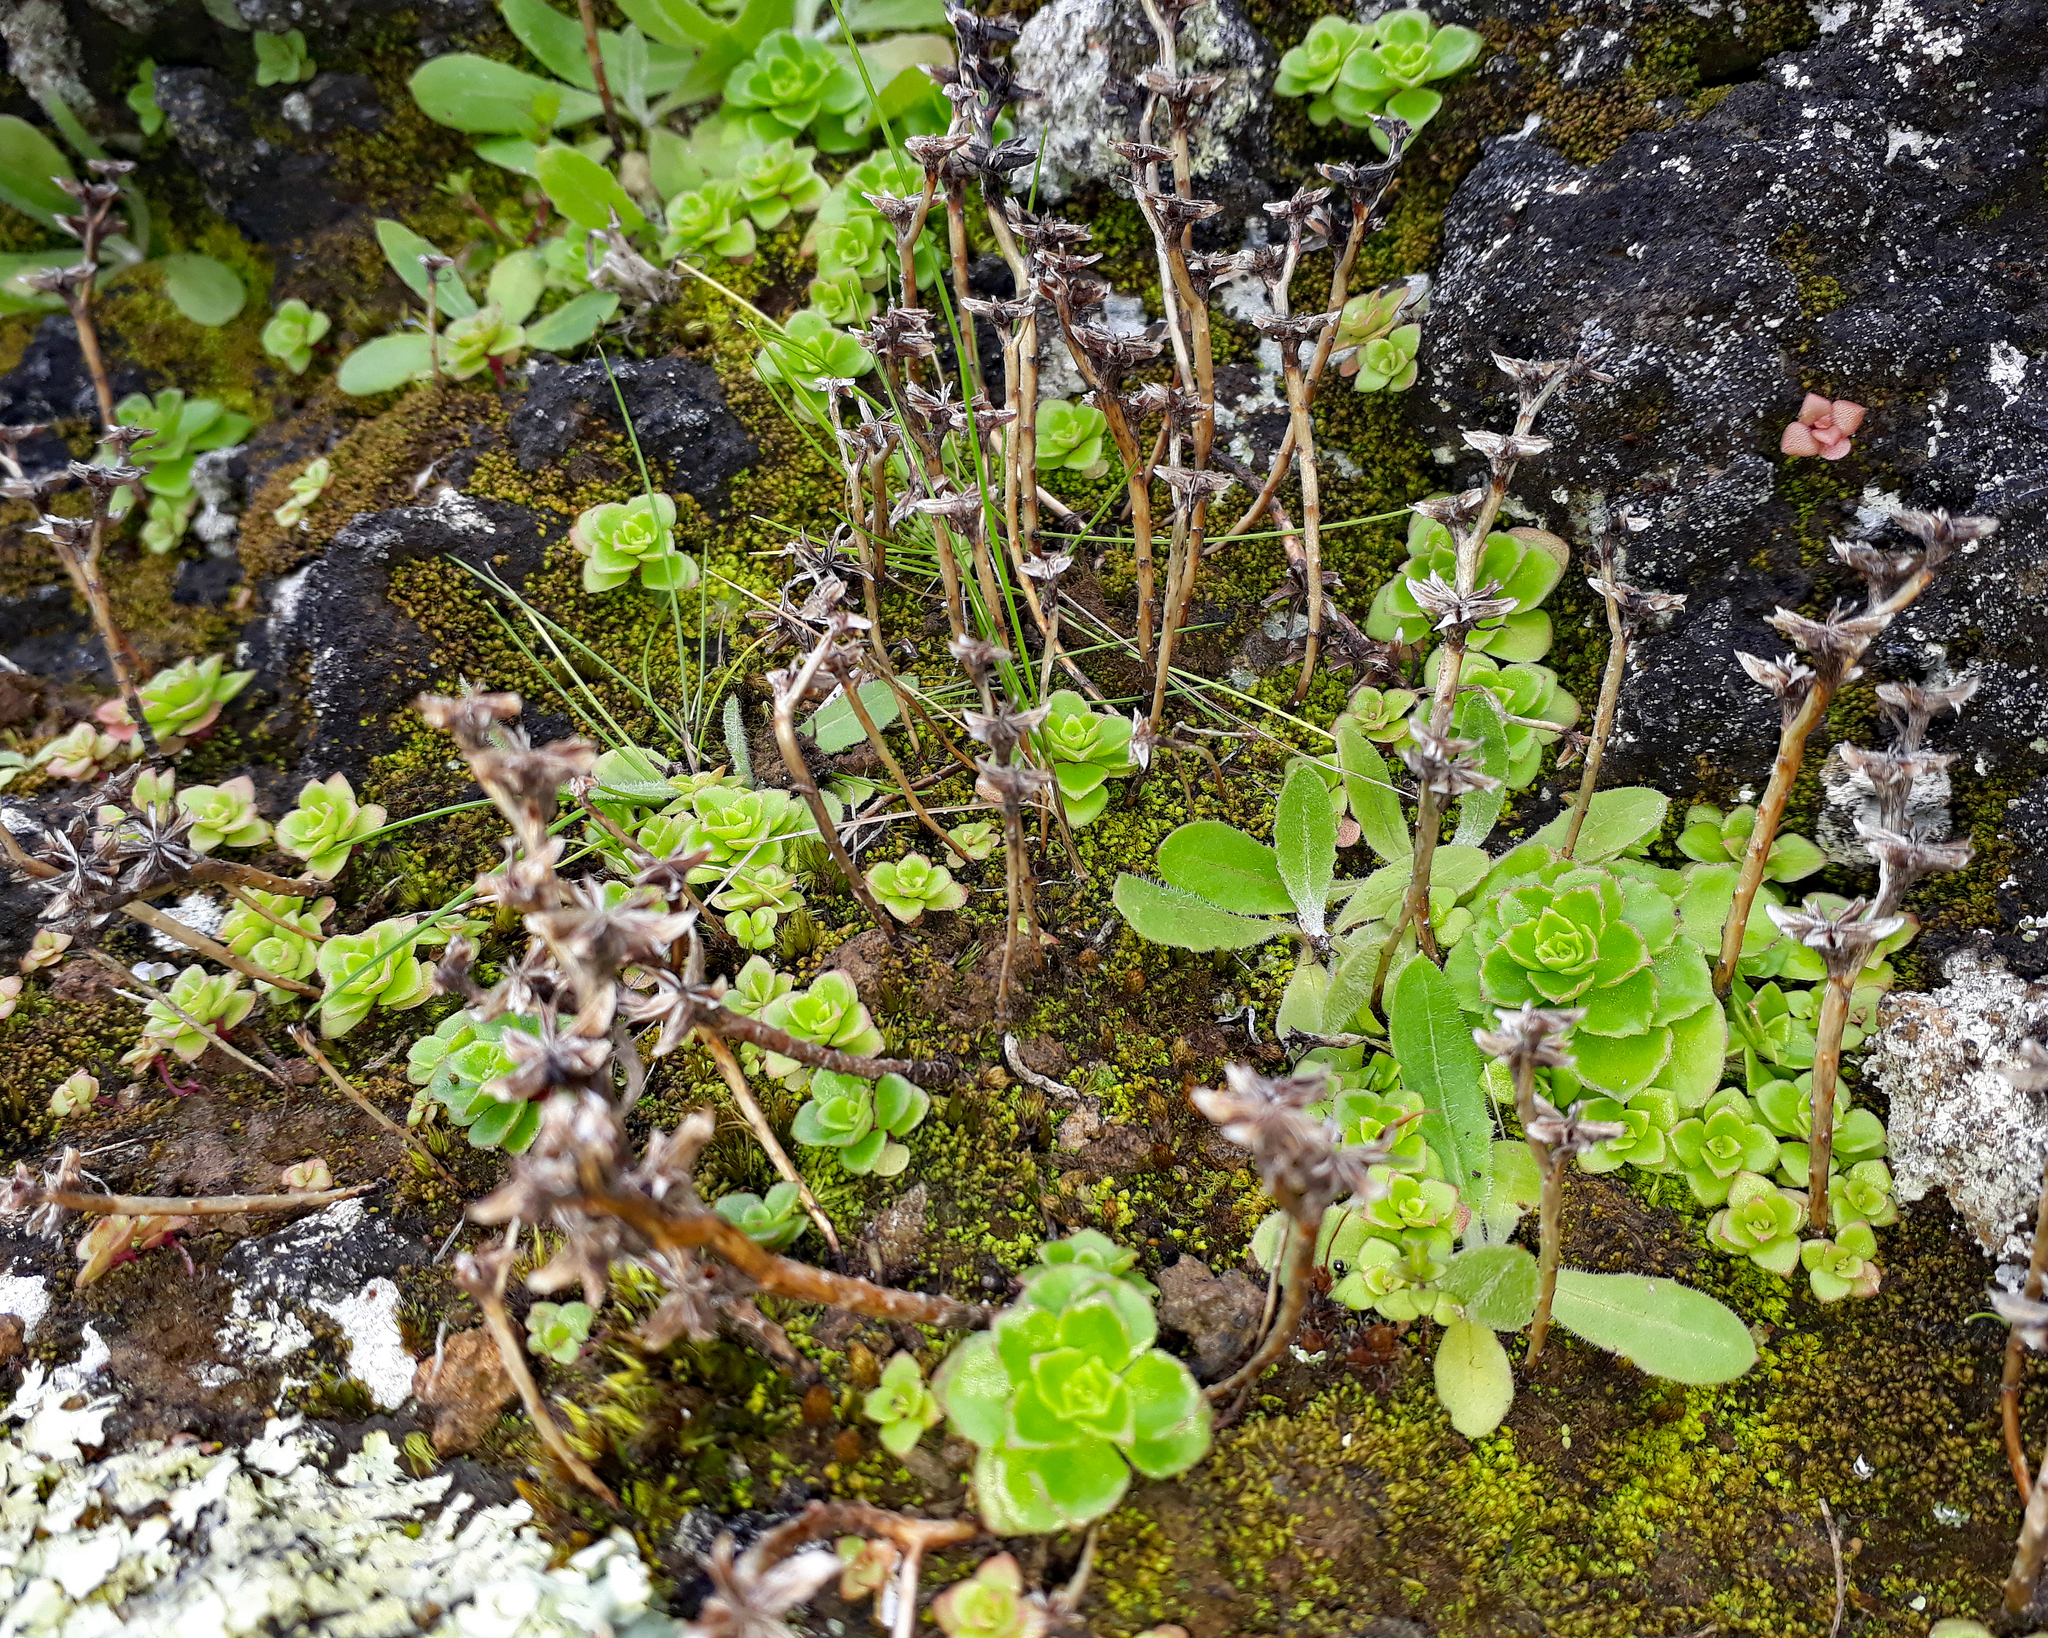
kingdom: Plantae
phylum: Tracheophyta
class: Magnoliopsida
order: Saxifragales
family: Crassulaceae
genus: Phedimus
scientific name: Phedimus stellatus
